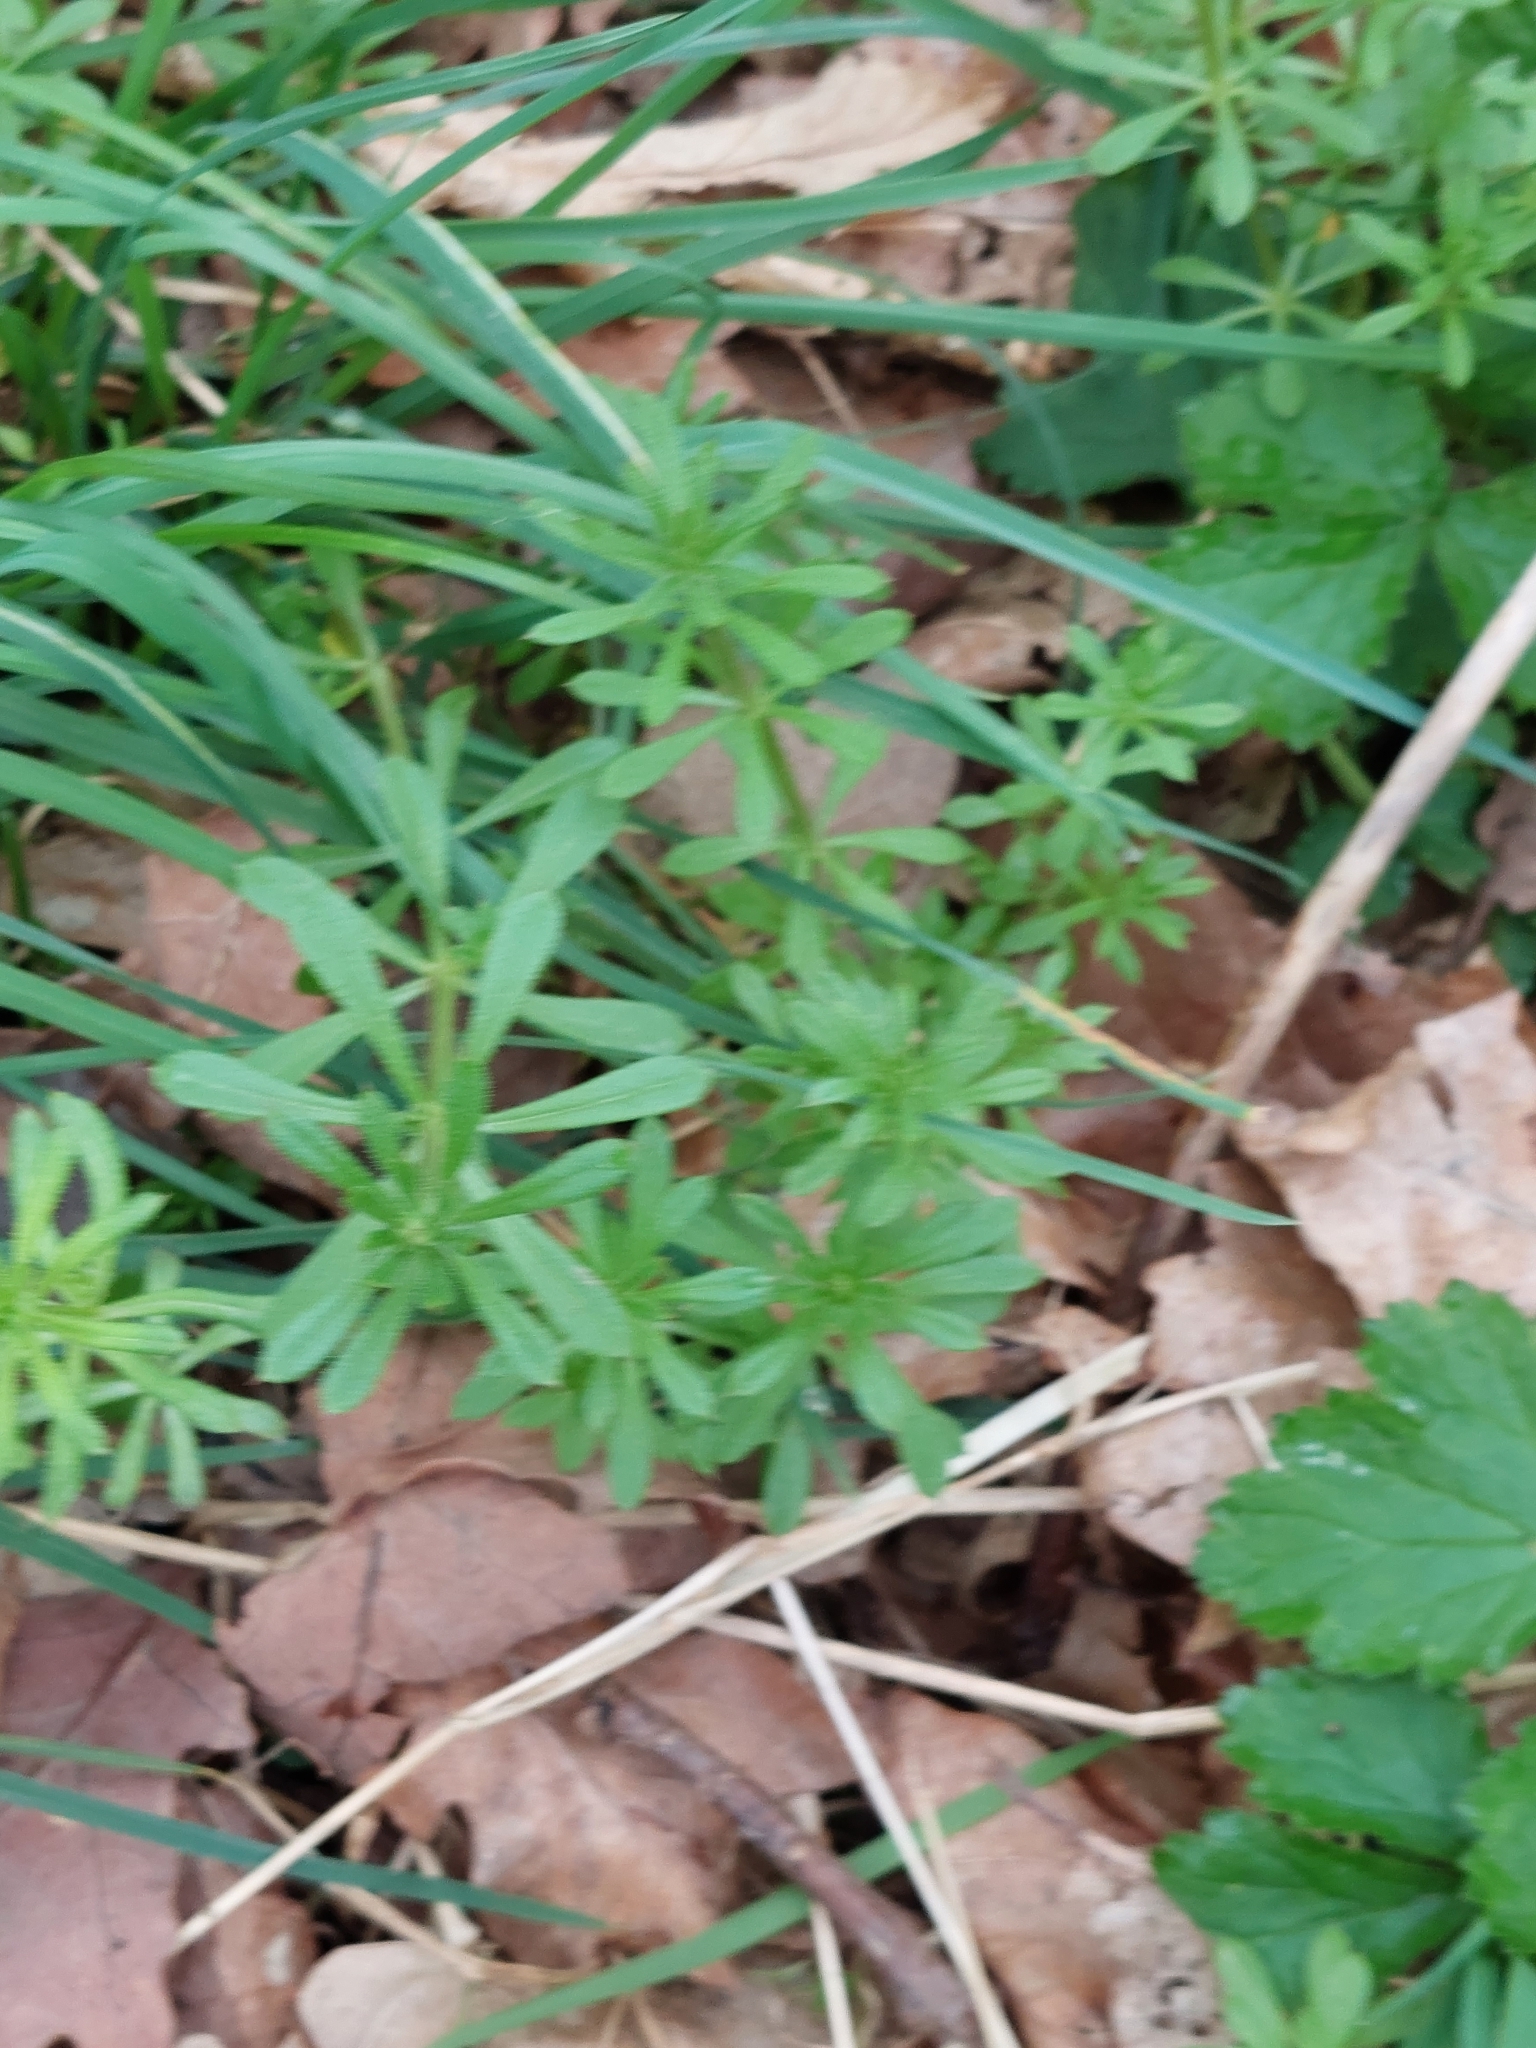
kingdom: Plantae
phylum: Tracheophyta
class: Magnoliopsida
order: Gentianales
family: Rubiaceae
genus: Galium
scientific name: Galium aparine
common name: Cleavers
